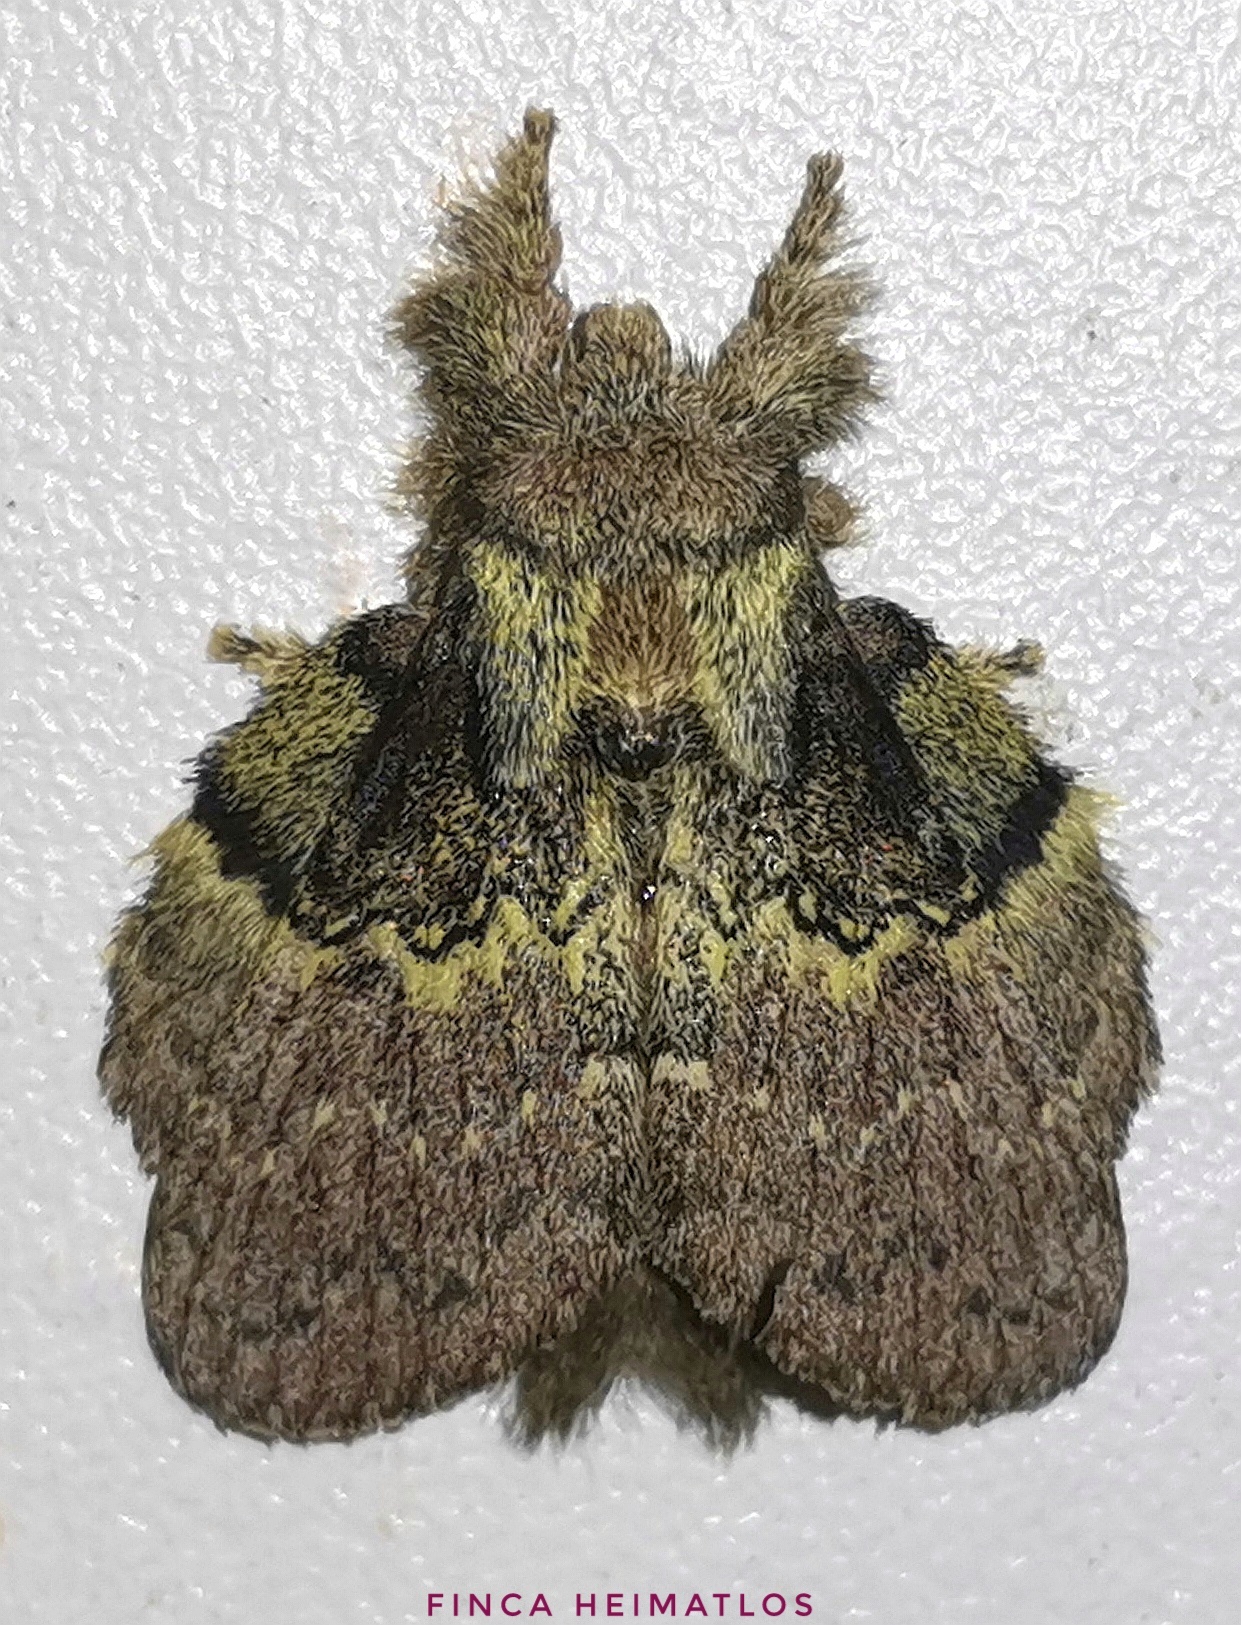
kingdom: Animalia
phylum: Arthropoda
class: Insecta
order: Lepidoptera
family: Lasiocampidae
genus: Euglyphis
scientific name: Euglyphis tanta
